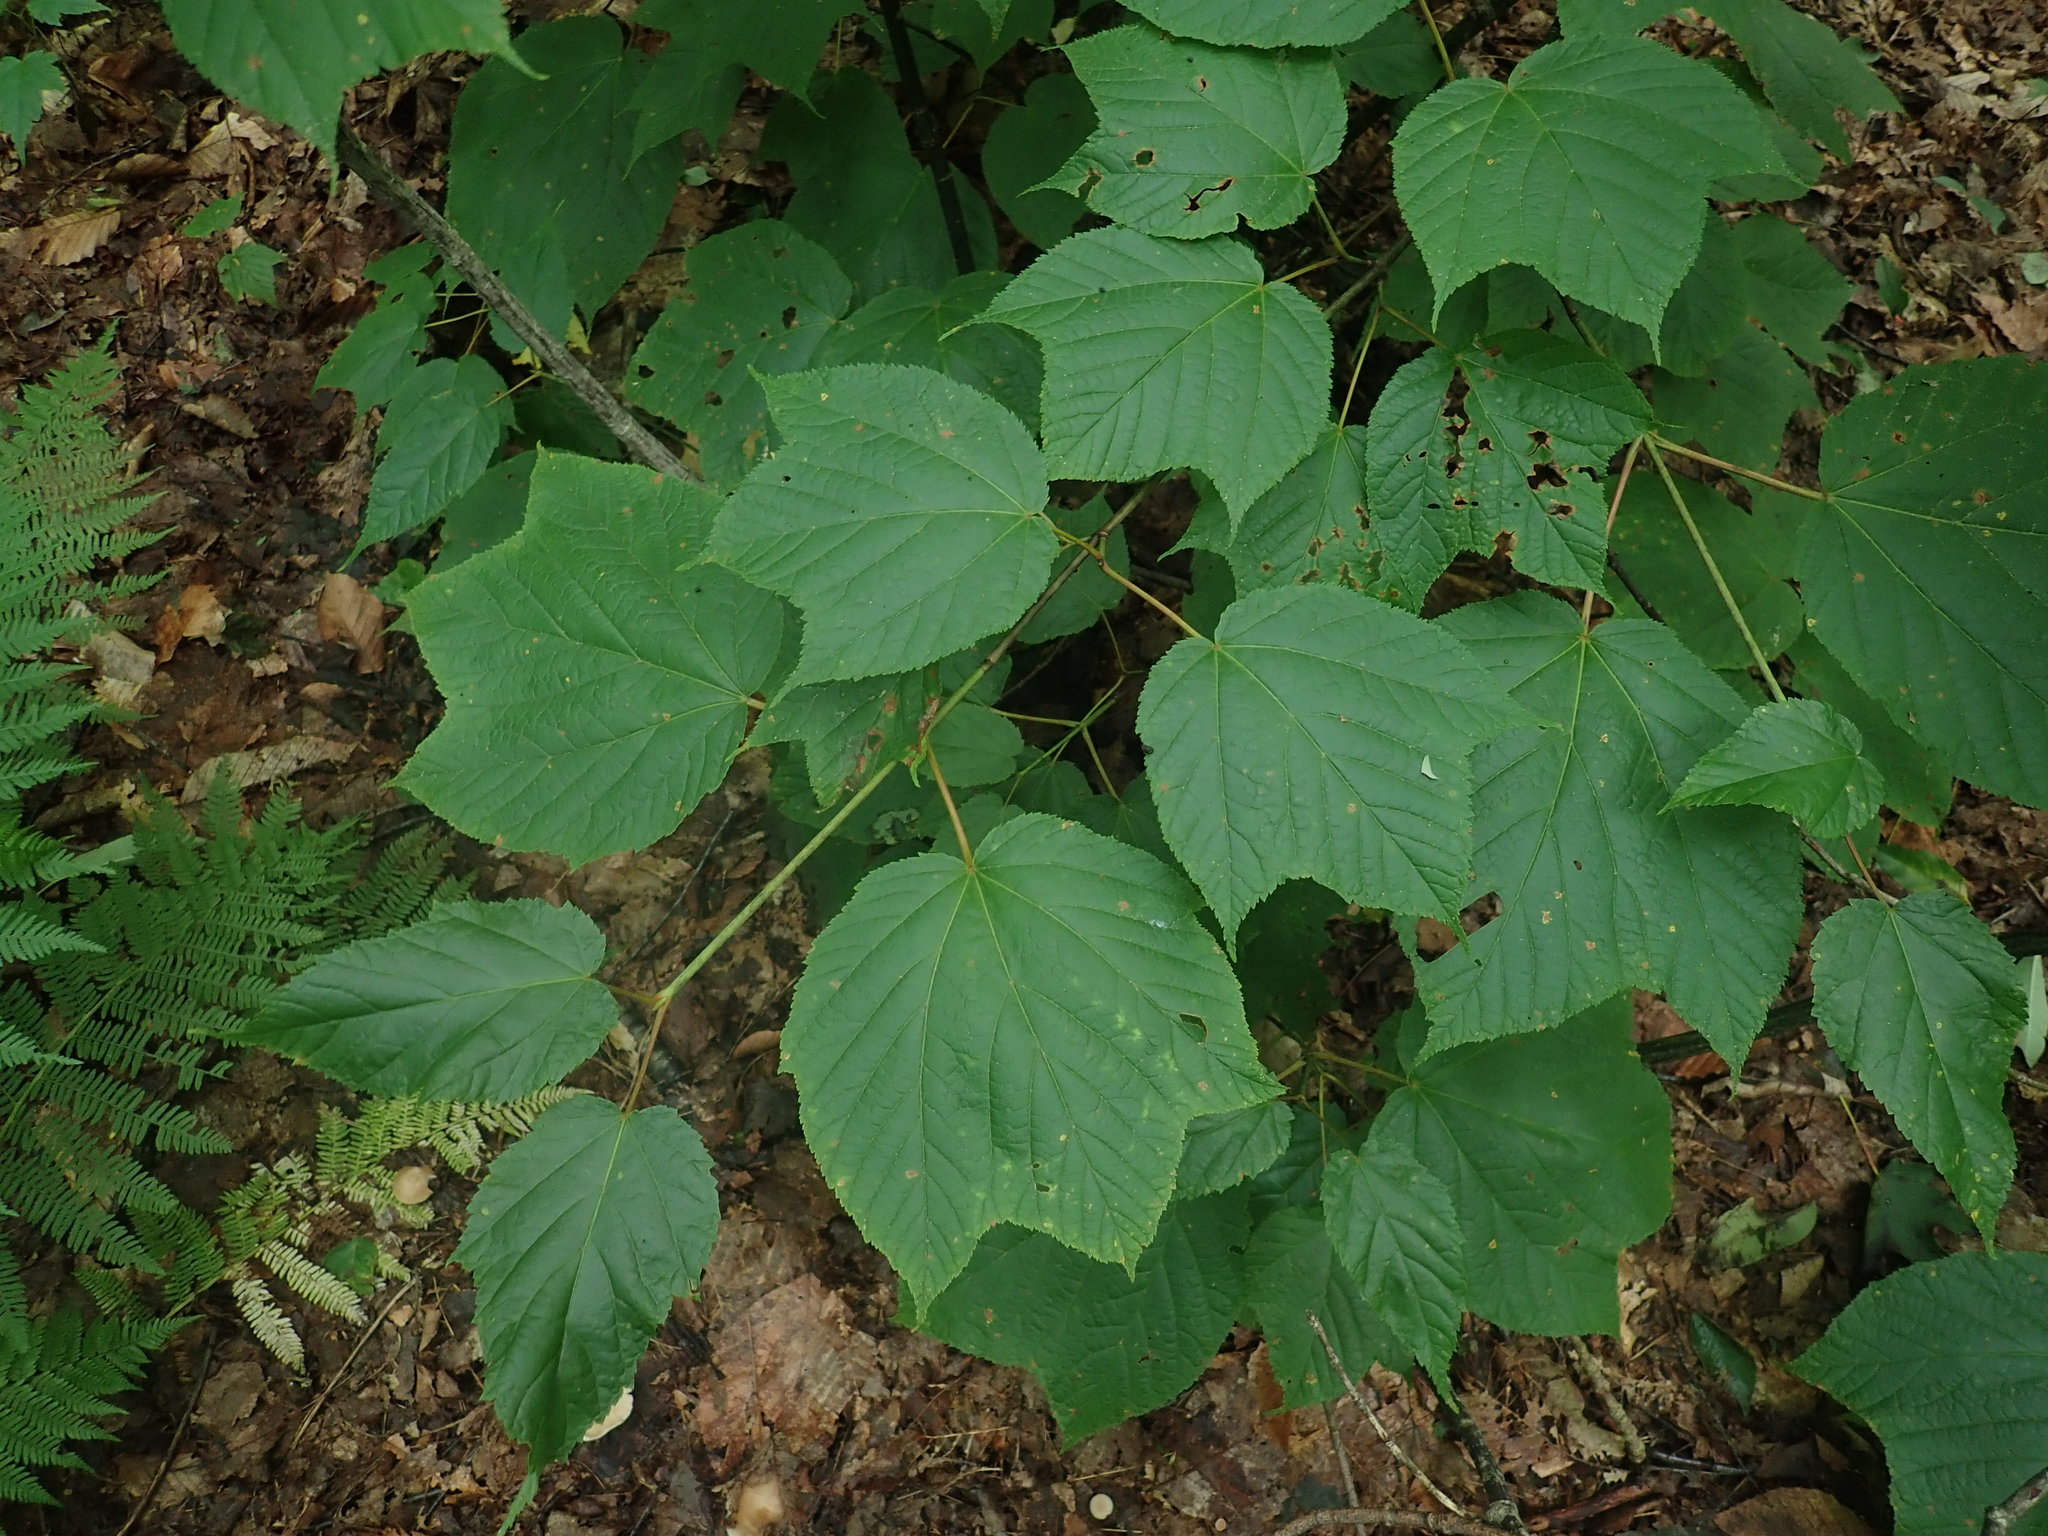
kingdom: Plantae
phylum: Tracheophyta
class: Magnoliopsida
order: Sapindales
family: Sapindaceae
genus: Acer
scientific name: Acer pensylvanicum
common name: Moosewood
